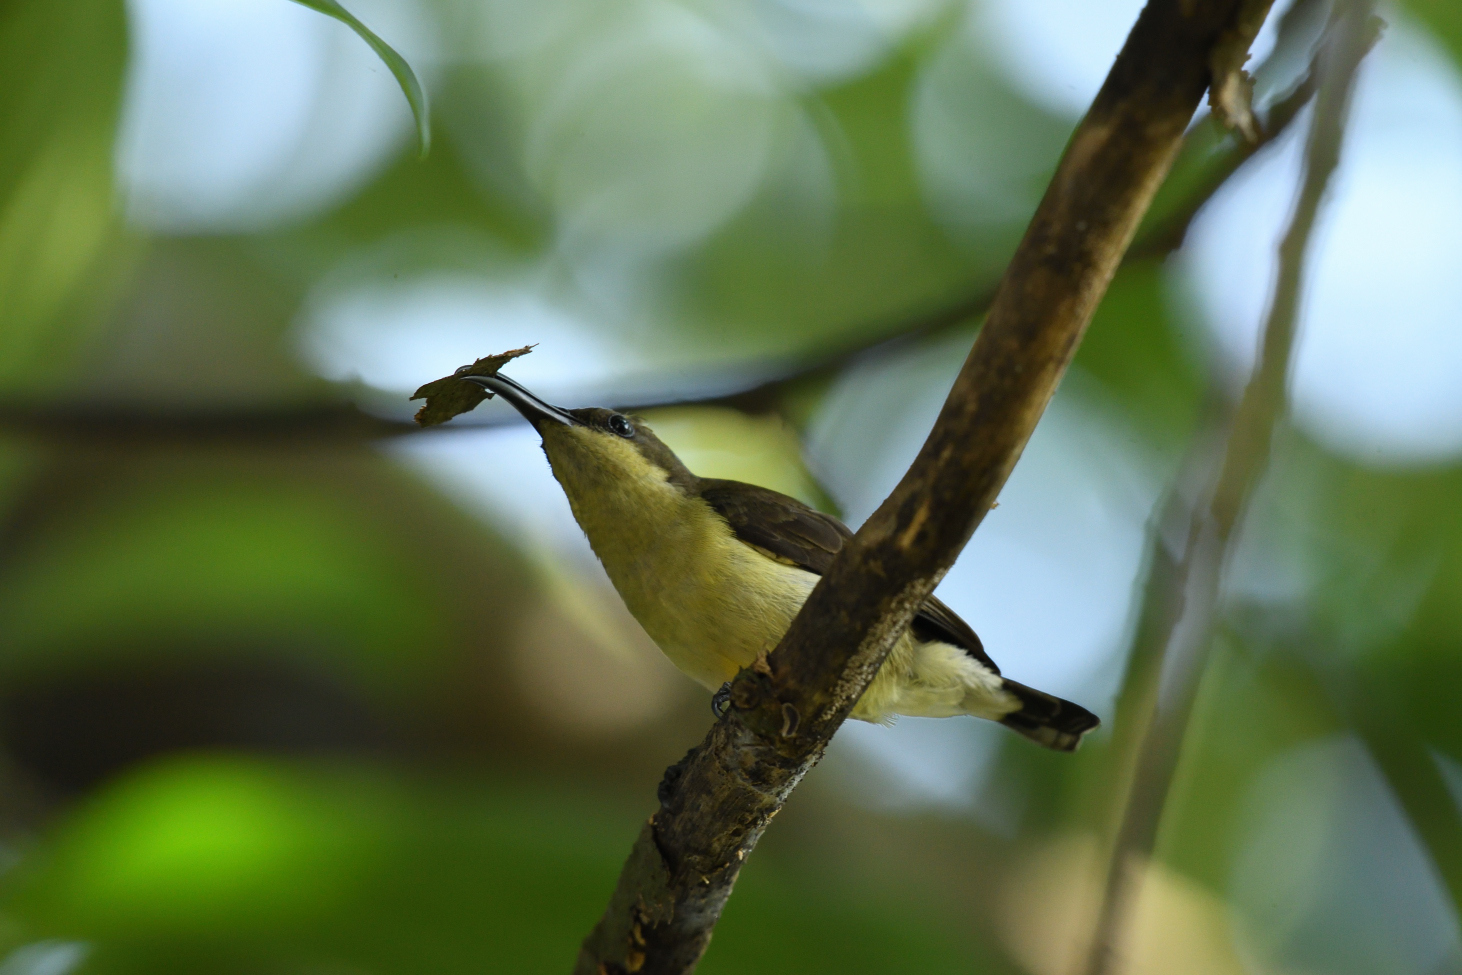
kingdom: Animalia
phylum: Chordata
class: Aves
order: Passeriformes
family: Nectariniidae
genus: Cinnyris
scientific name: Cinnyris lotenius
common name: Loten's sunbird
